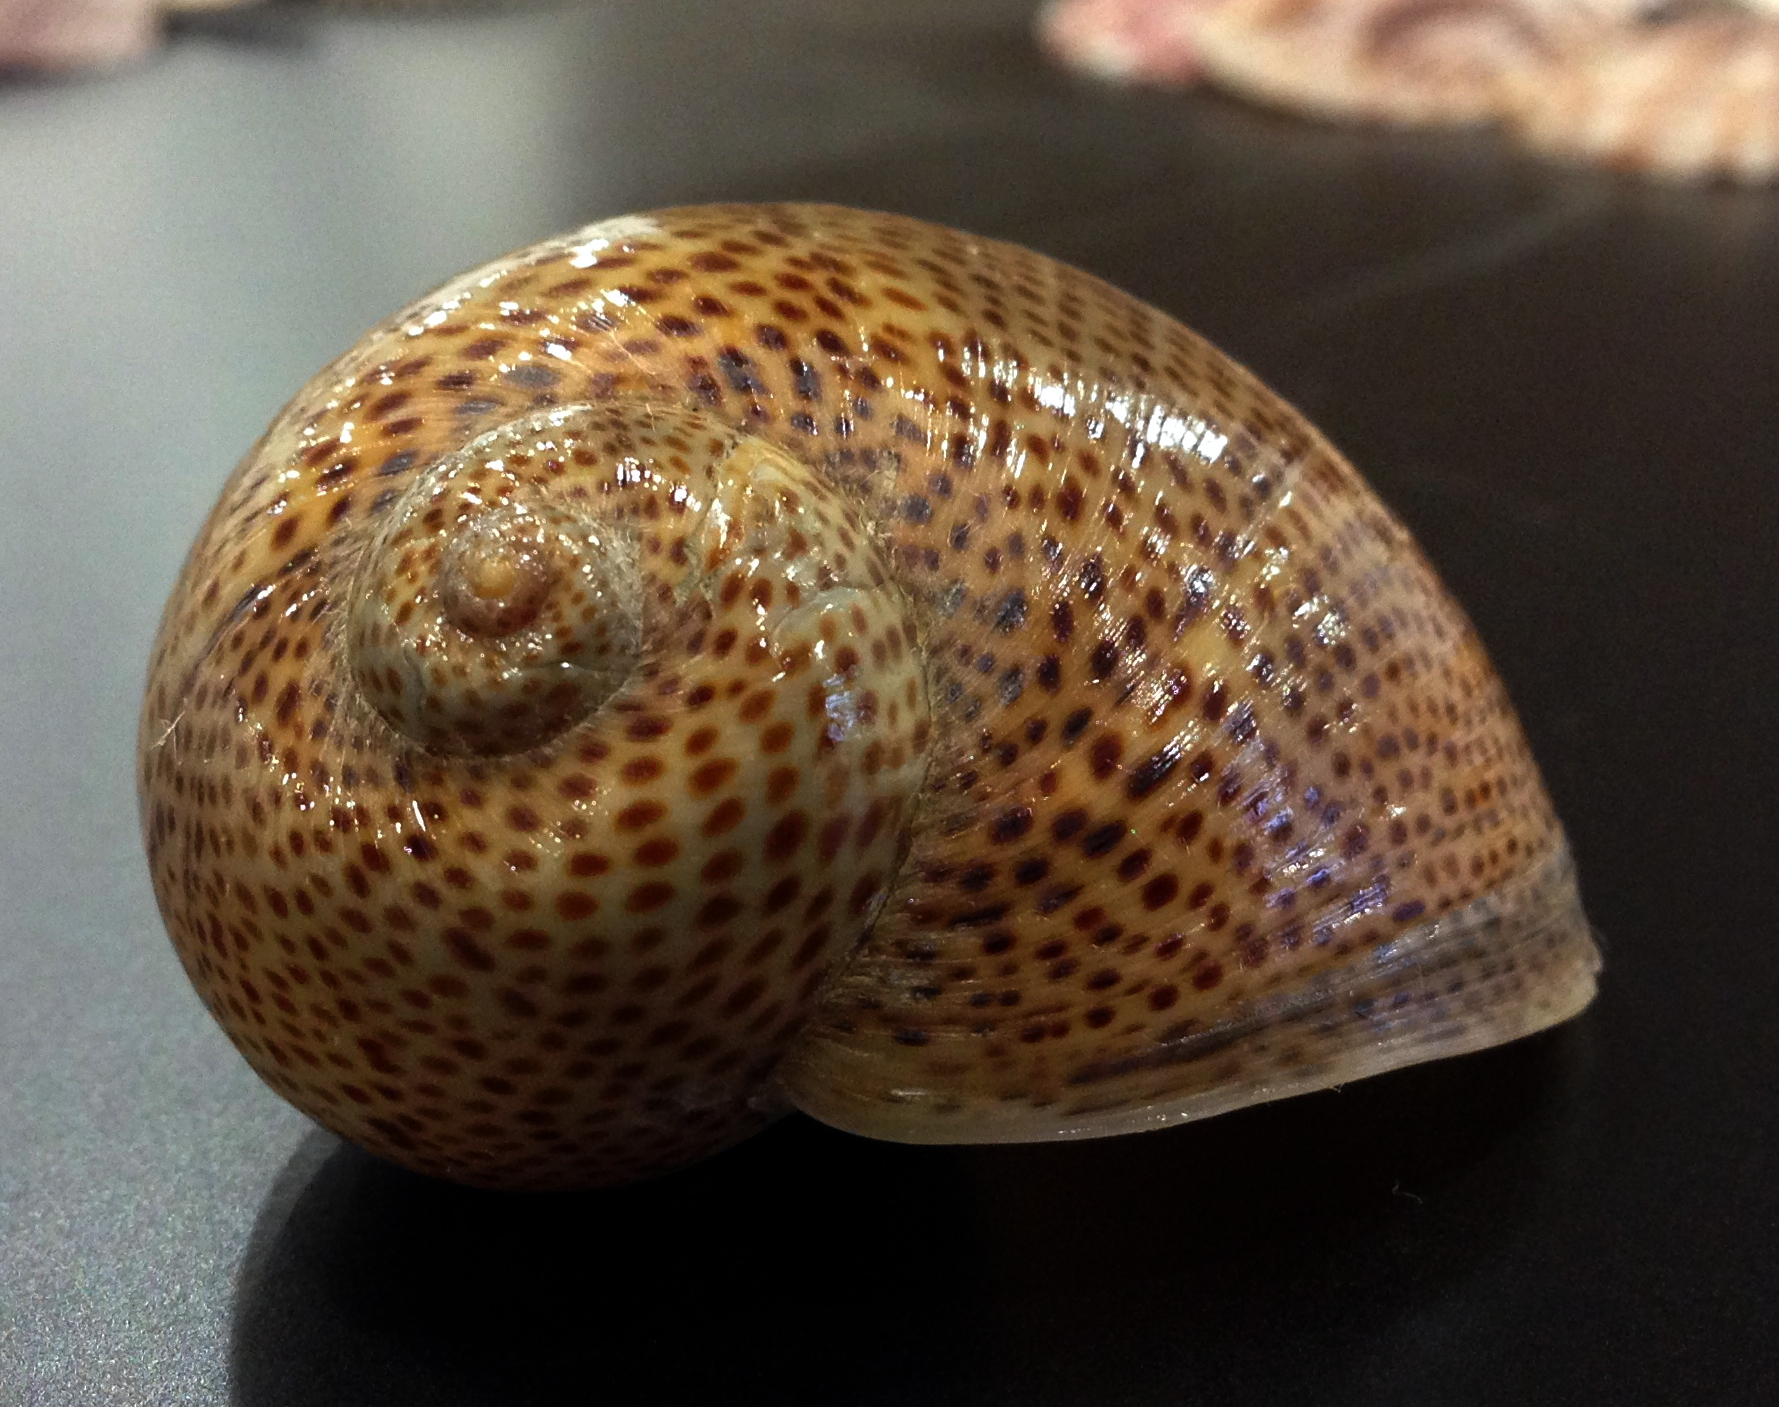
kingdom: Animalia
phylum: Mollusca
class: Gastropoda
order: Littorinimorpha
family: Naticidae
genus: Naticarius
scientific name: Naticarius stercusmuscarum
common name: Fly-speck moonsnail
